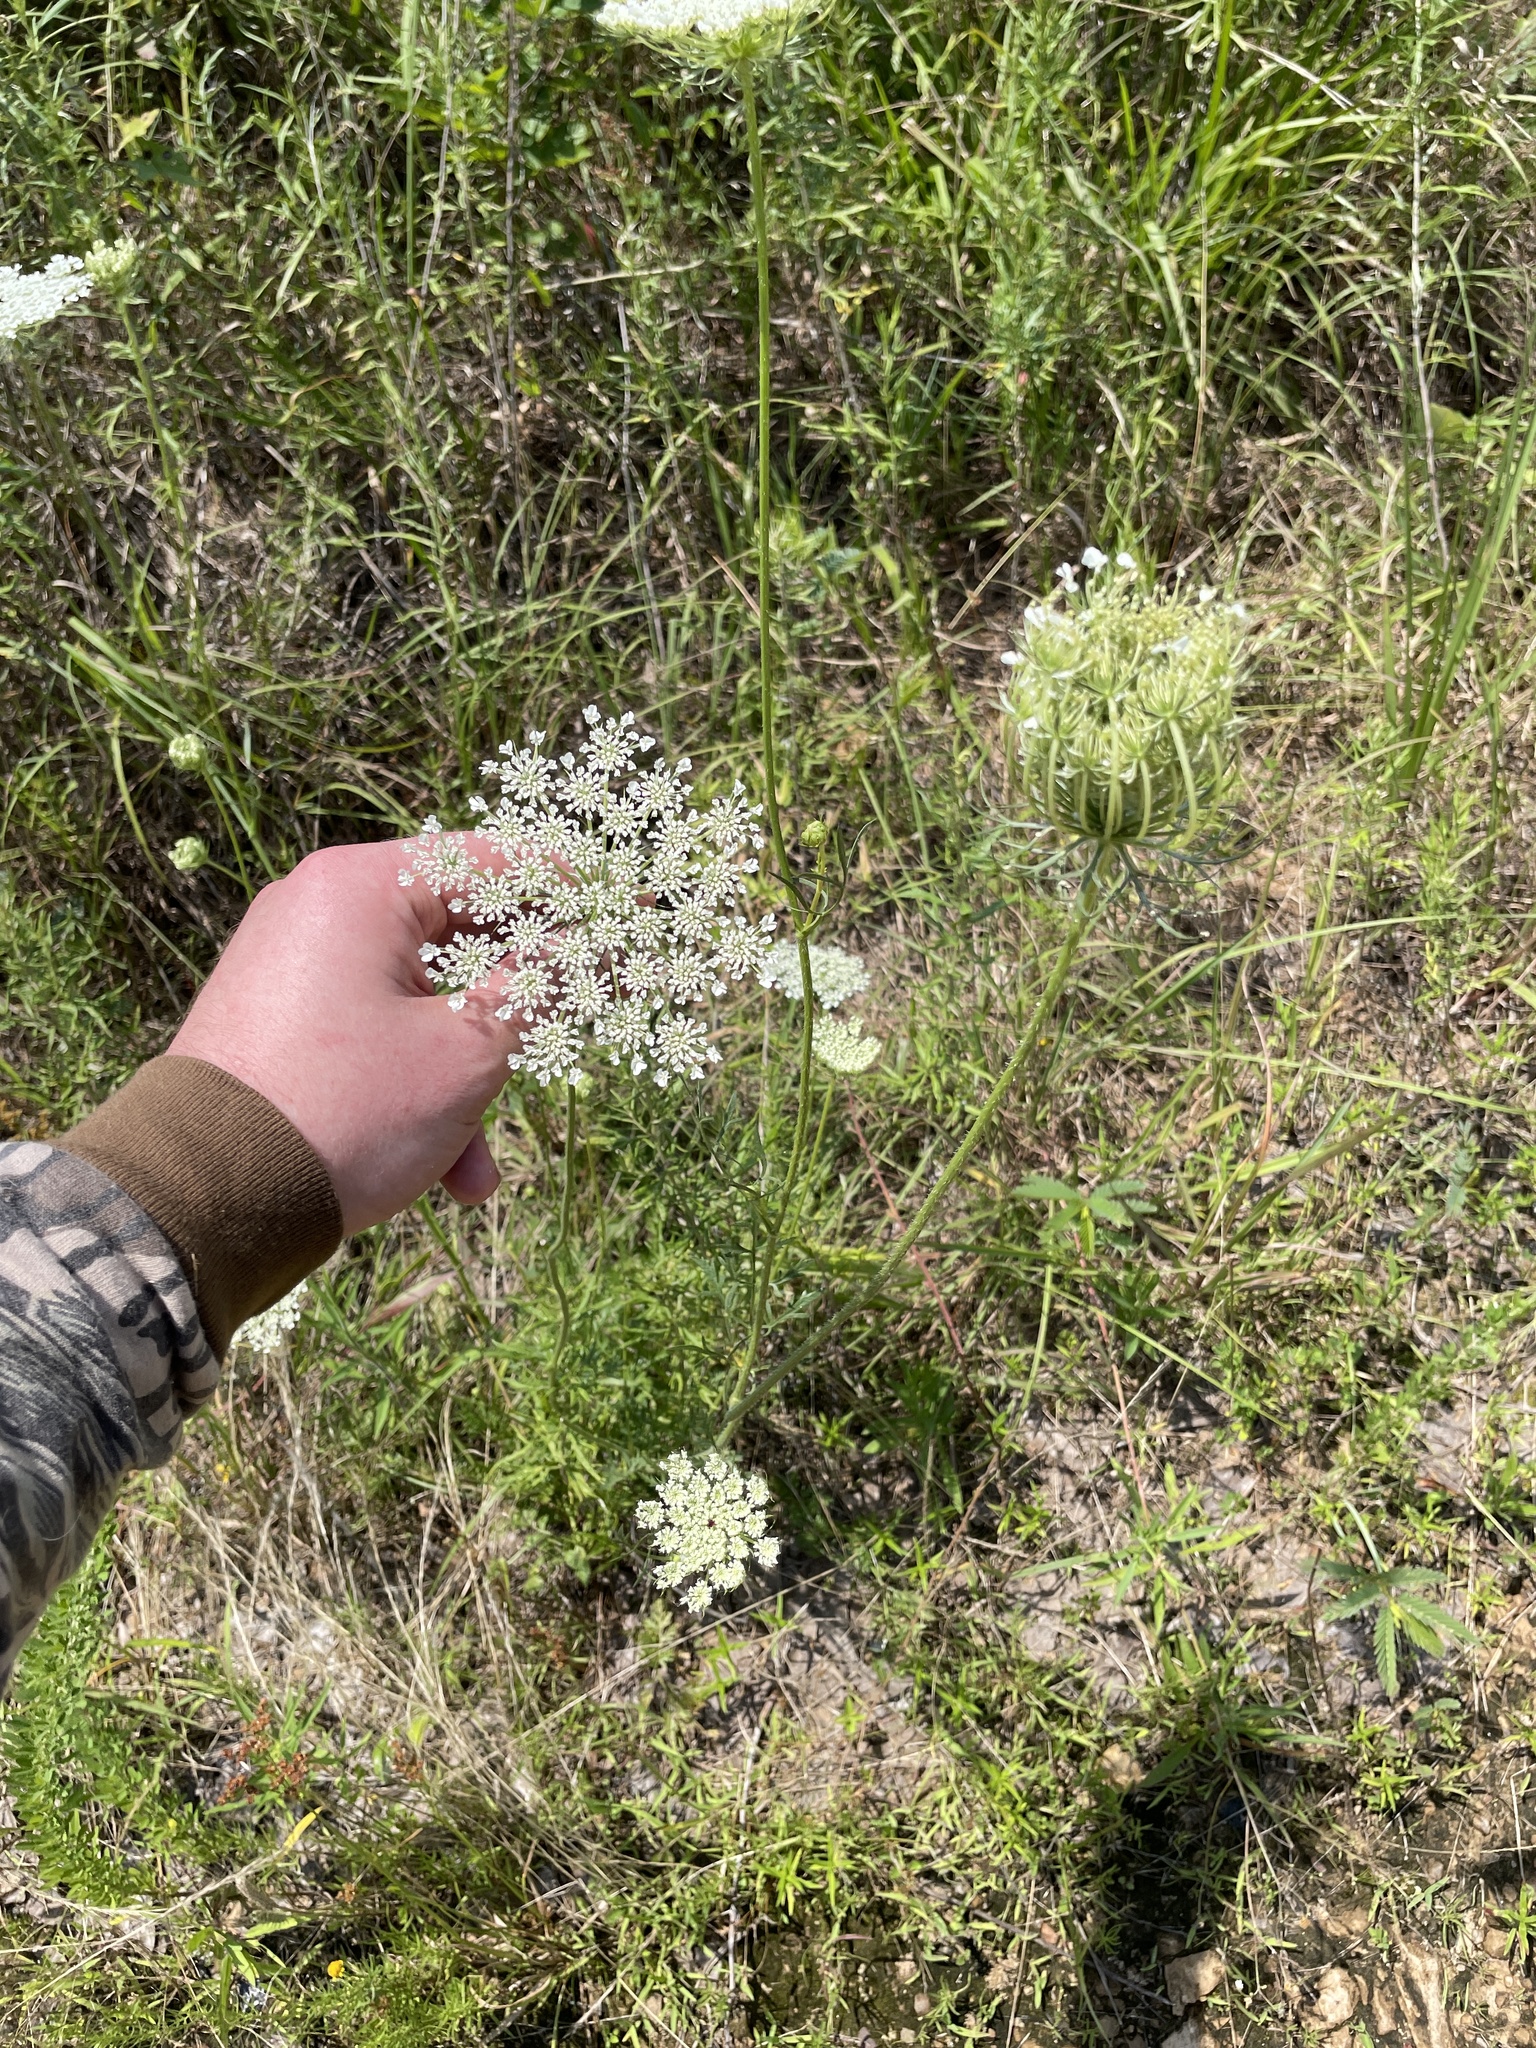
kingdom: Plantae
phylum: Tracheophyta
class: Magnoliopsida
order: Apiales
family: Apiaceae
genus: Daucus
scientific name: Daucus carota
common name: Wild carrot
